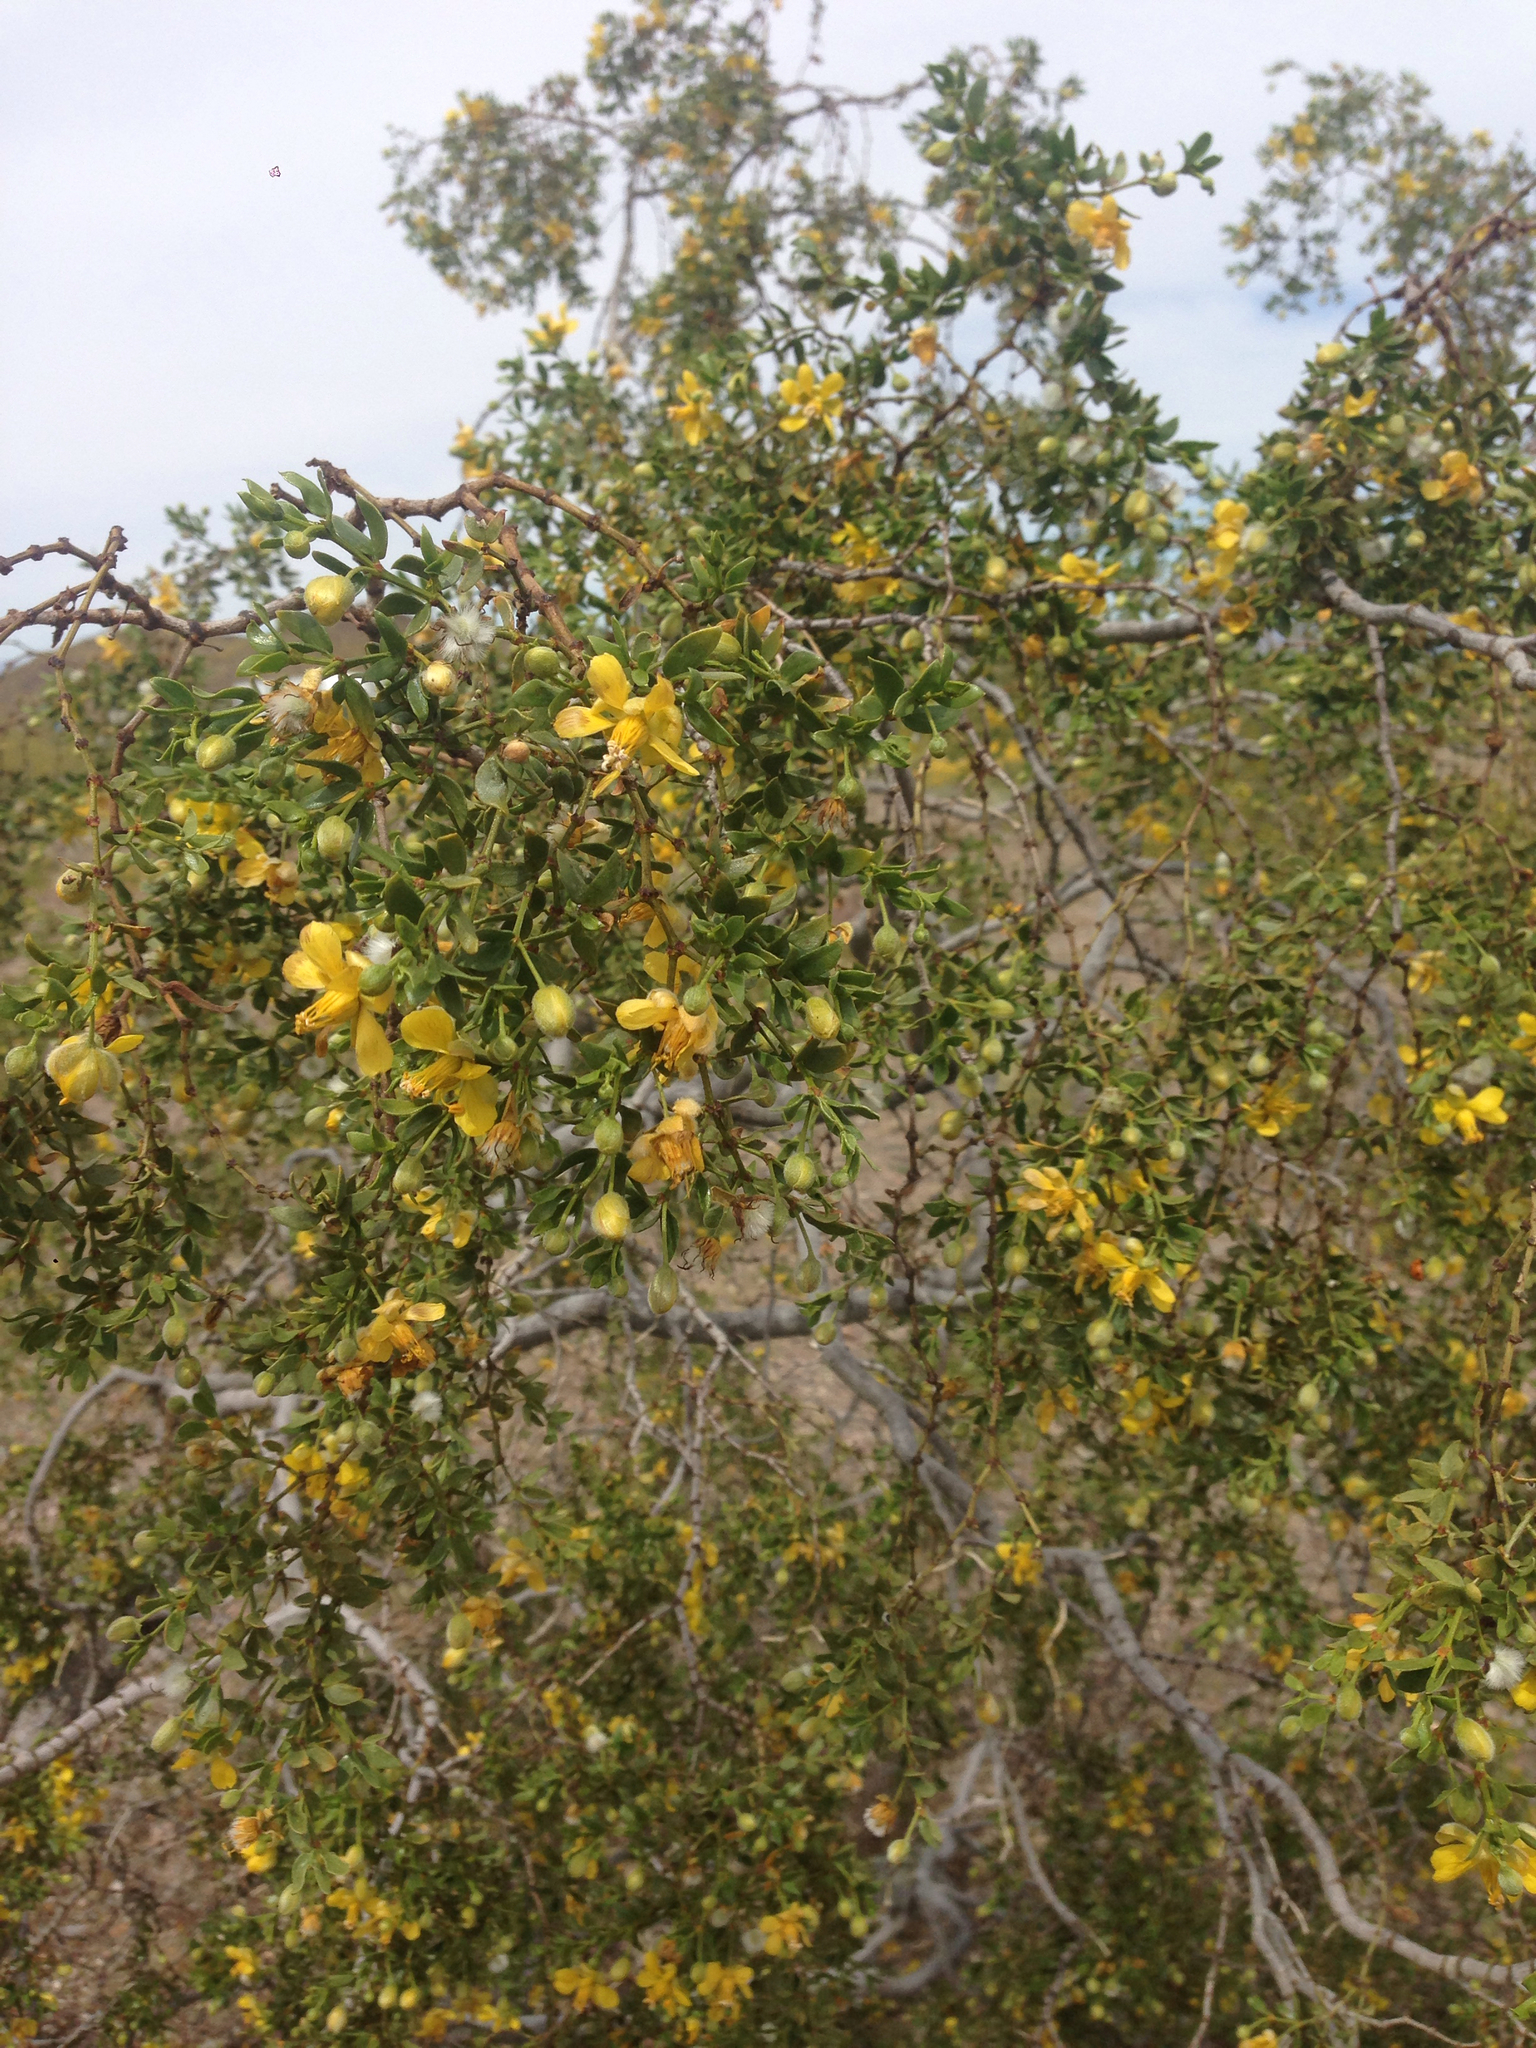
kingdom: Plantae
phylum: Tracheophyta
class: Magnoliopsida
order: Zygophyllales
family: Zygophyllaceae
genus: Larrea
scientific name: Larrea tridentata
